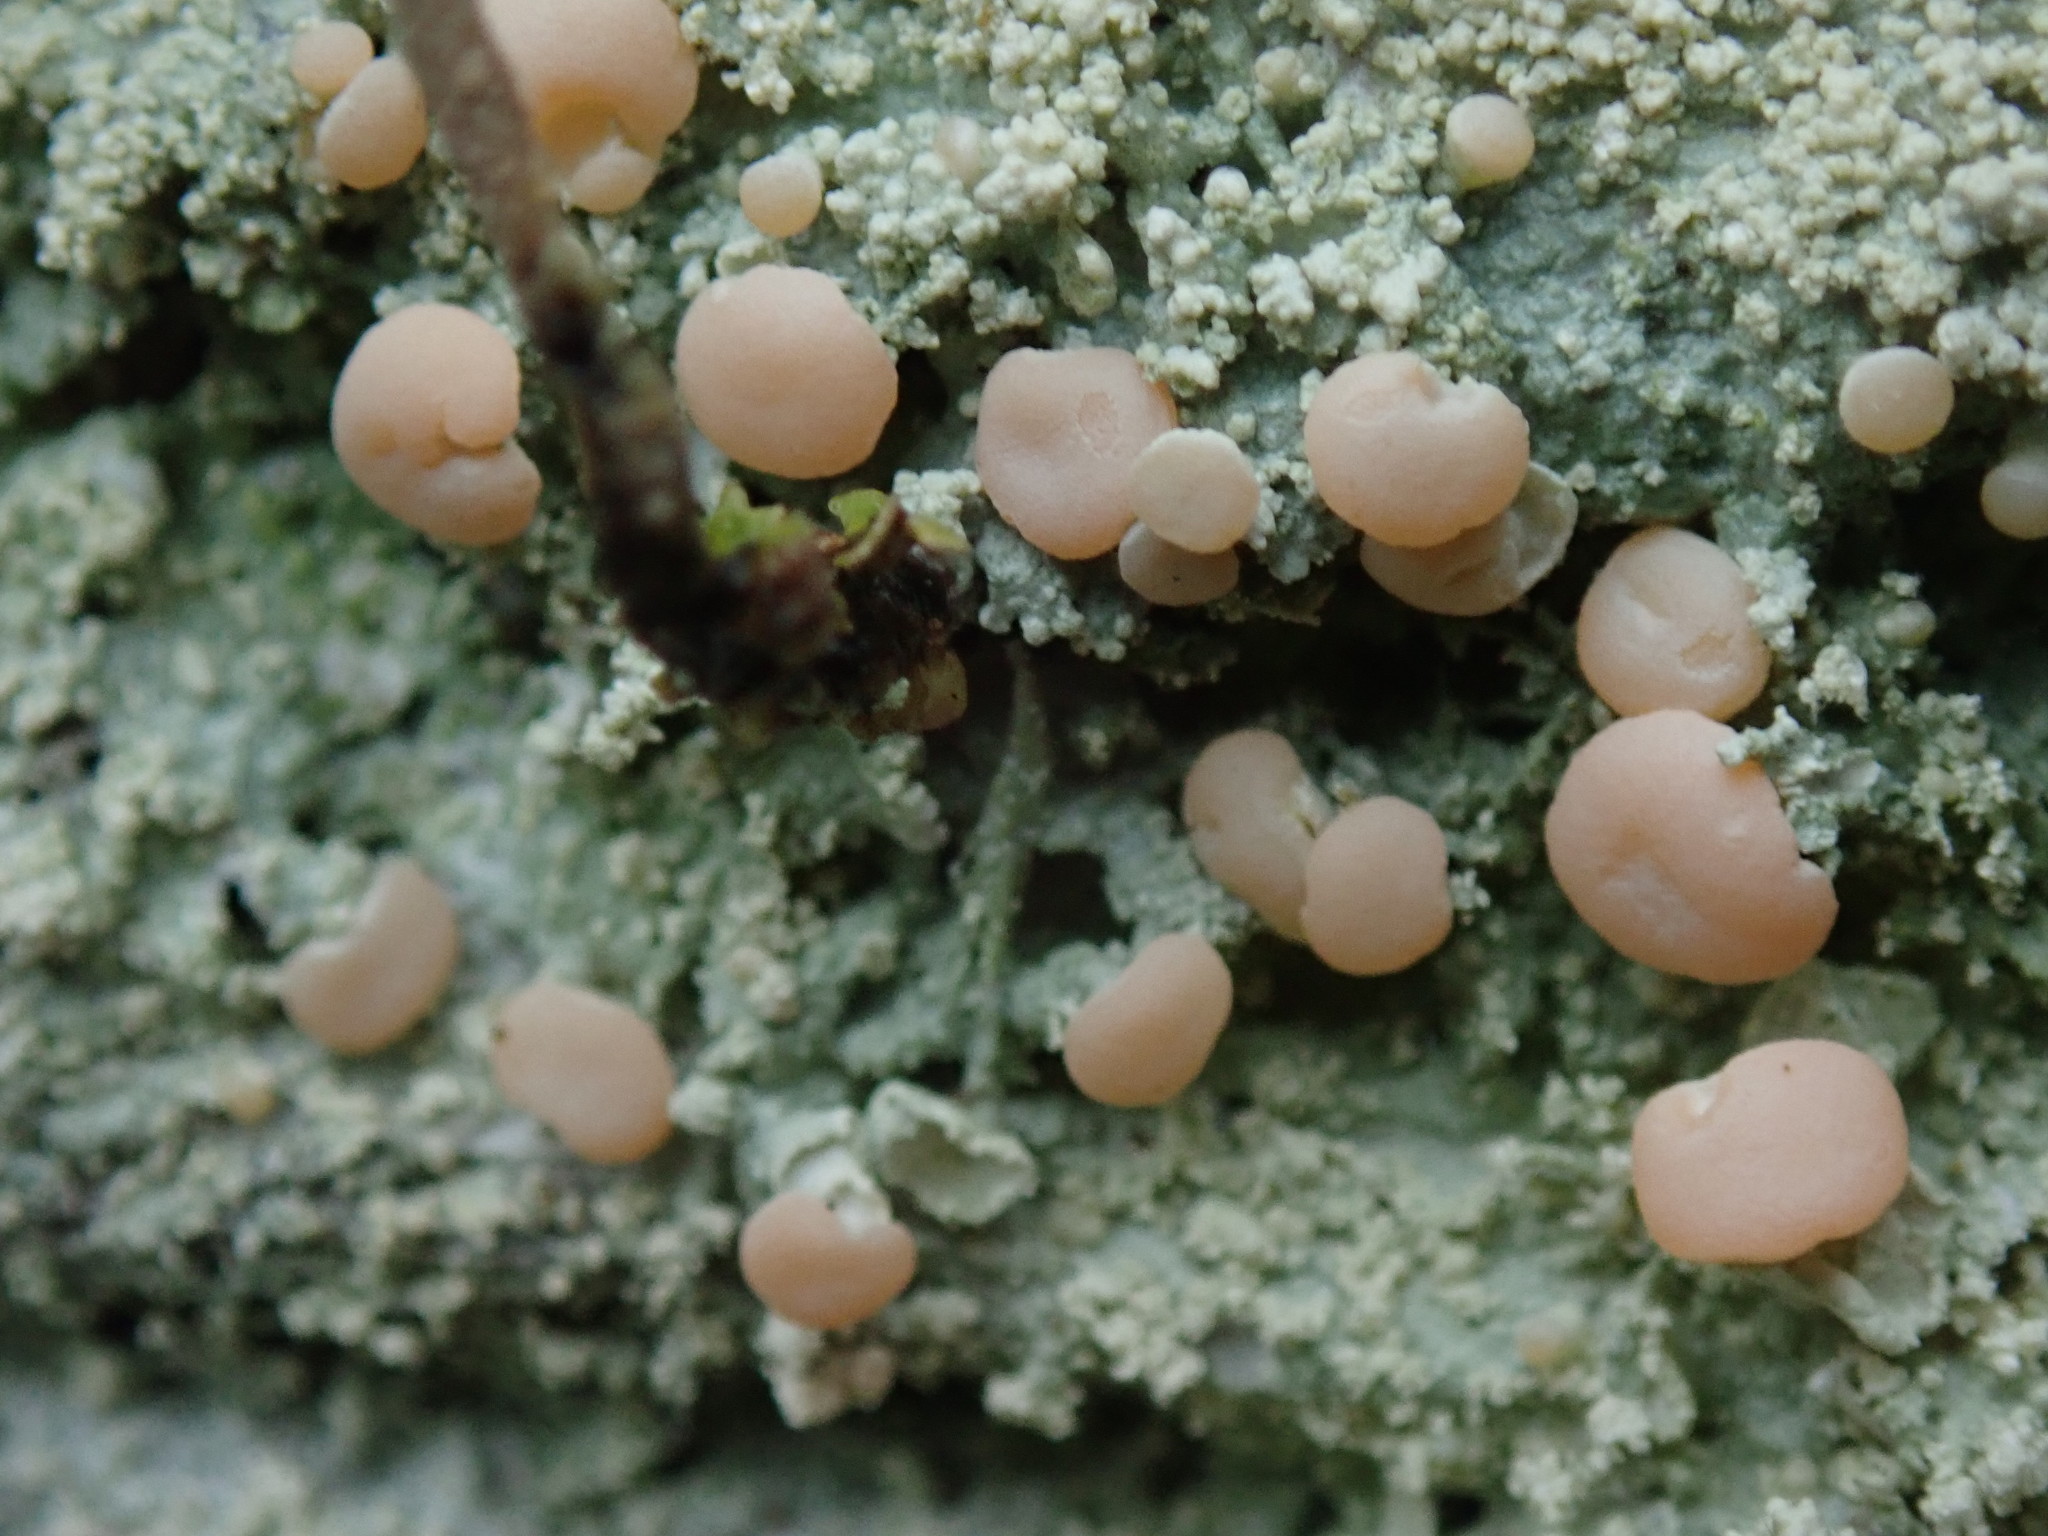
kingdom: Fungi
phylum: Ascomycota
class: Lecanoromycetes
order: Pertusariales
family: Icmadophilaceae
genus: Icmadophila
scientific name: Icmadophila ericetorum
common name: Candy lichen
